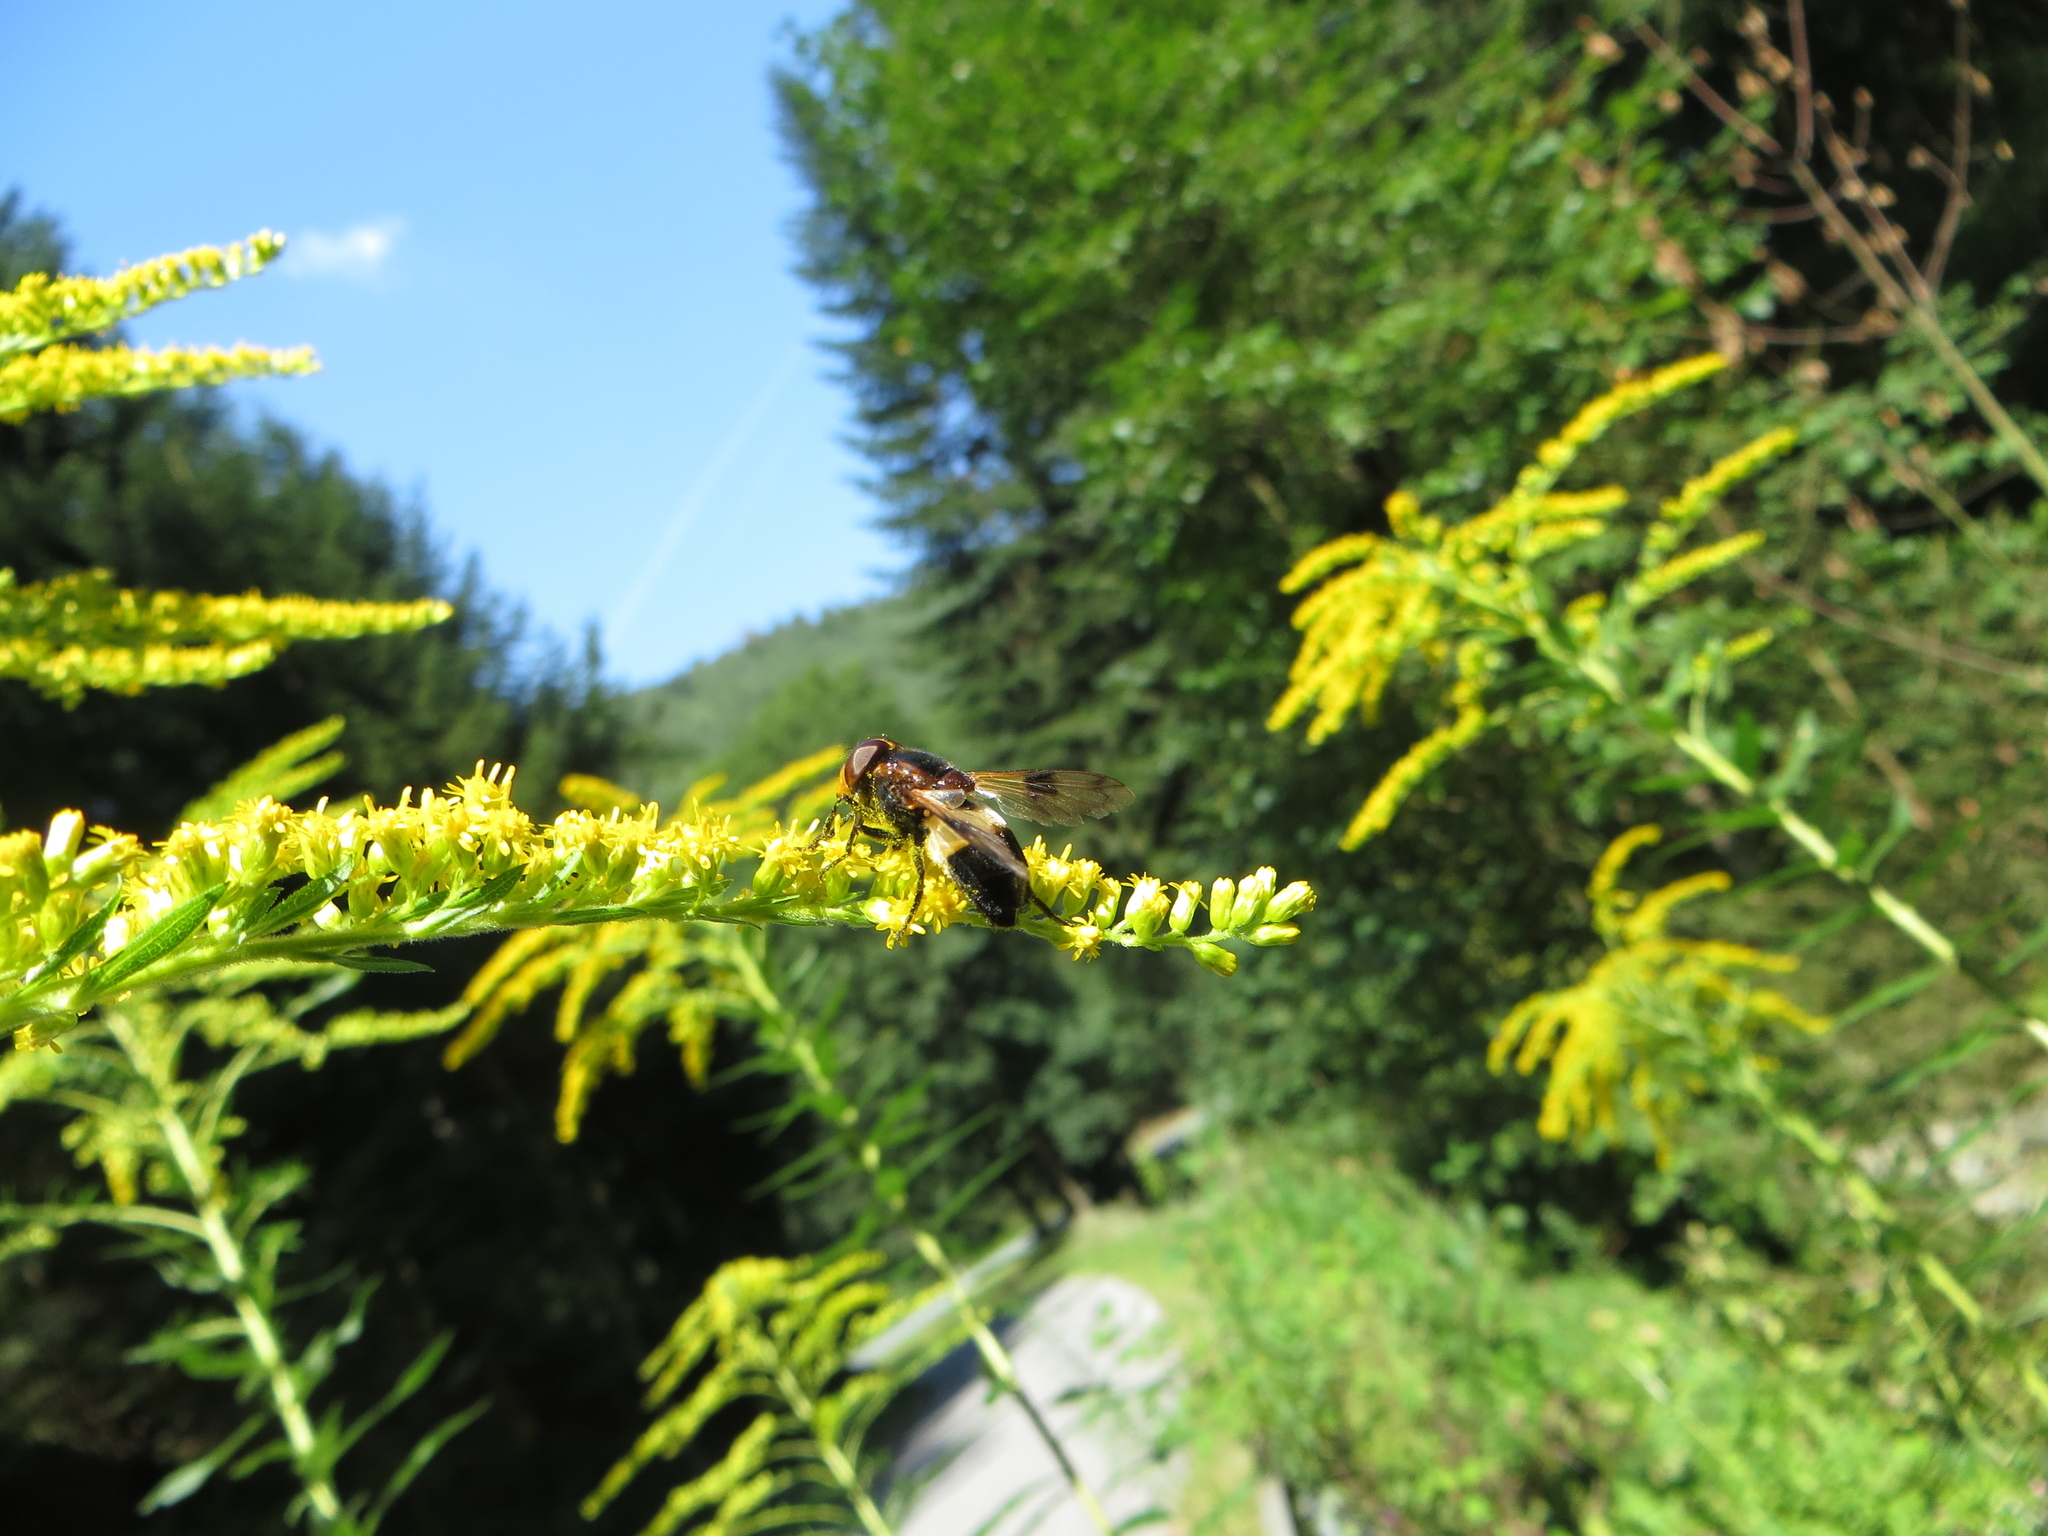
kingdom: Animalia
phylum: Arthropoda
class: Insecta
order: Diptera
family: Syrphidae
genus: Volucella
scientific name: Volucella pellucens
